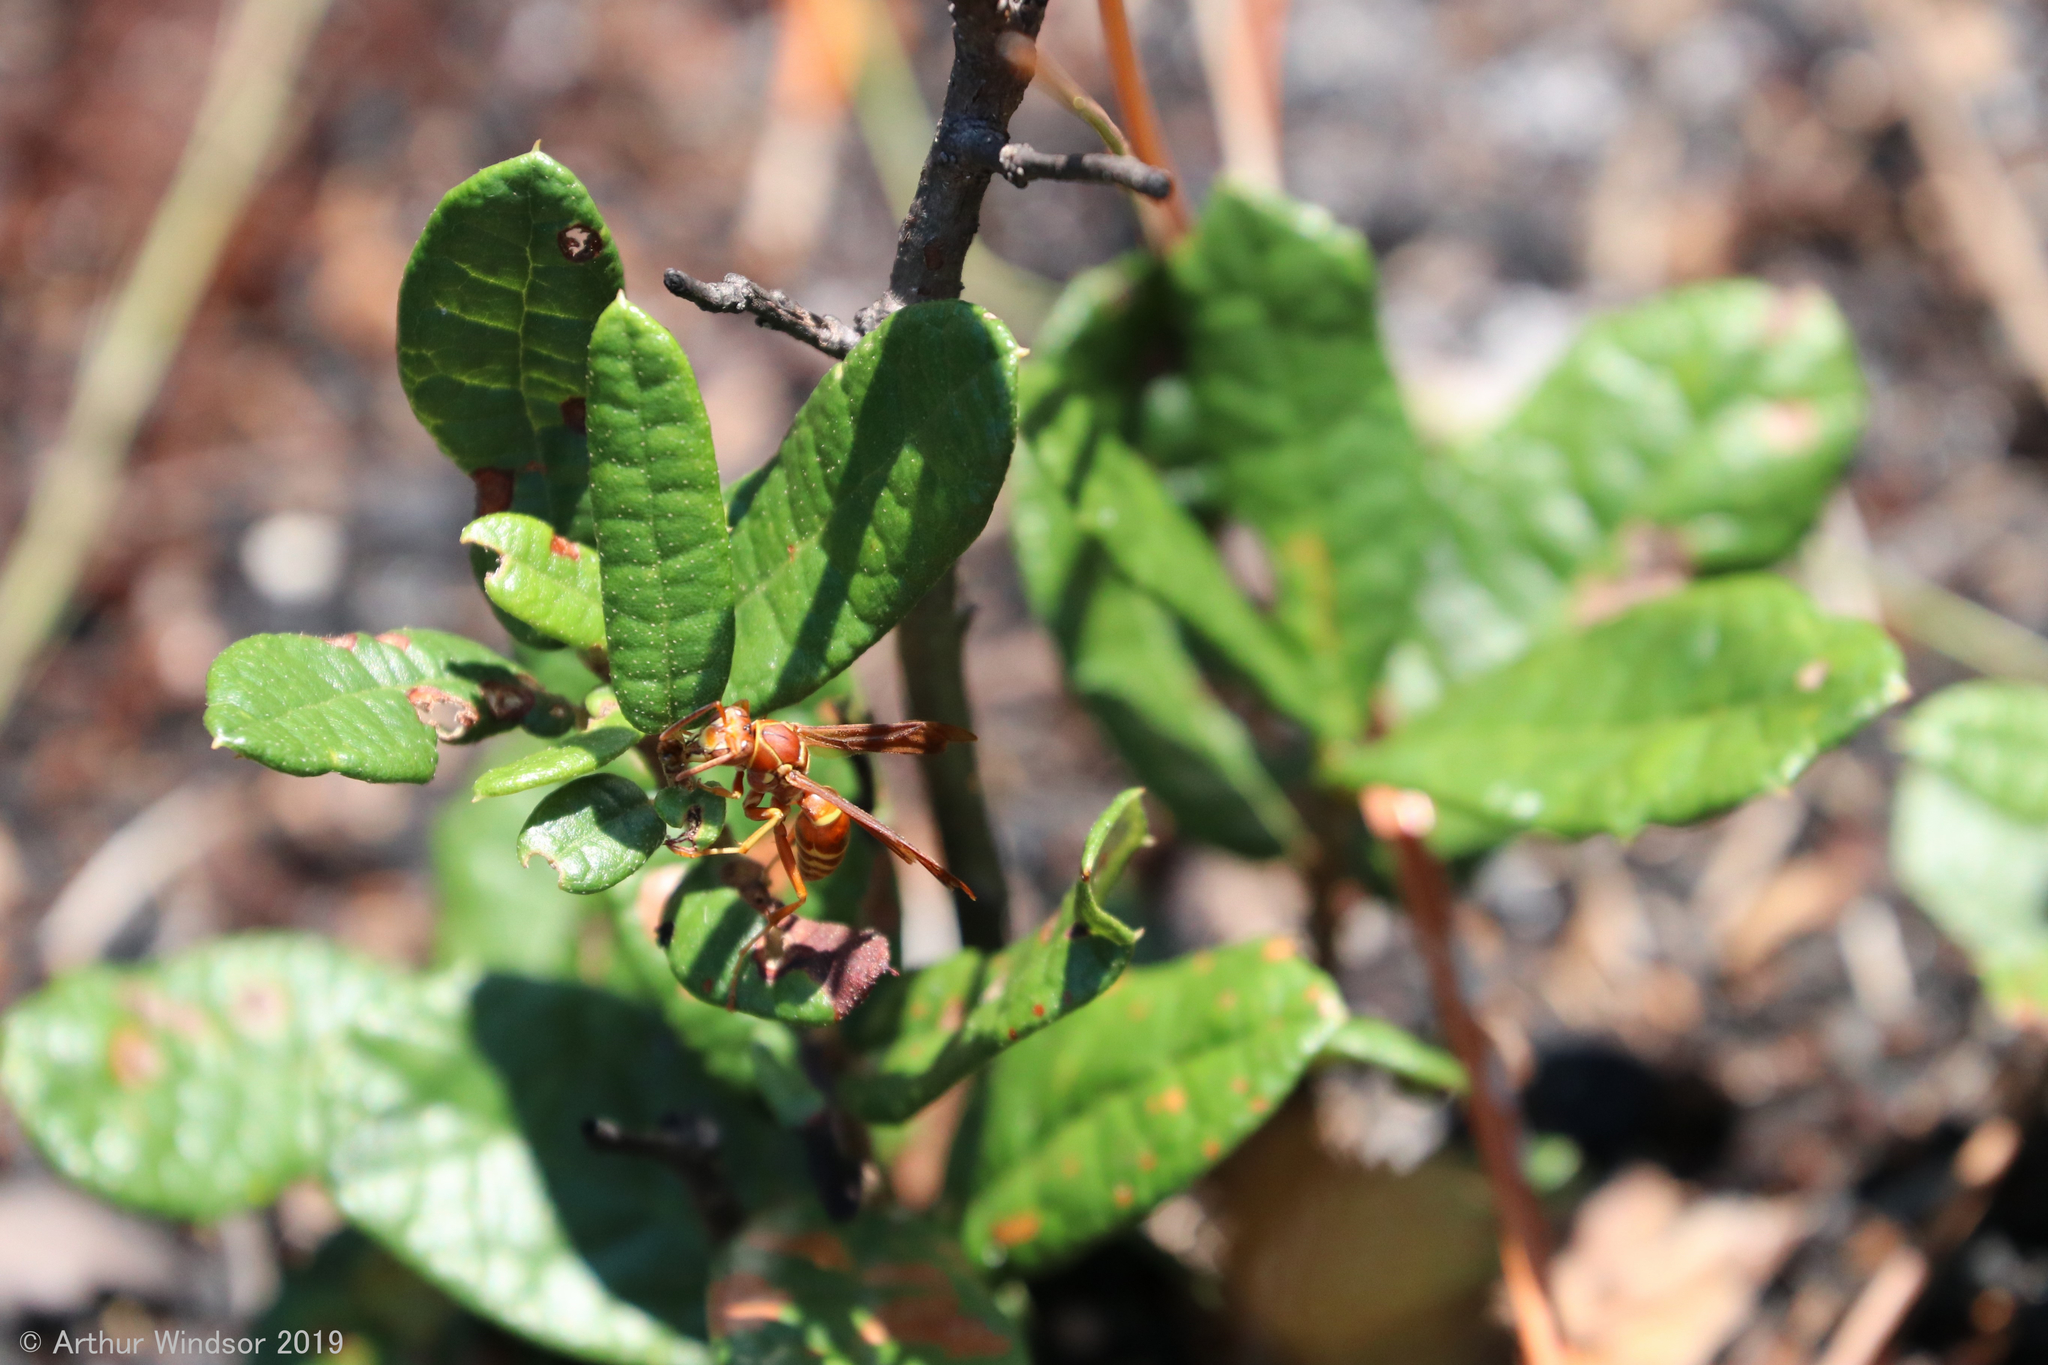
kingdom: Animalia
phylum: Arthropoda
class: Insecta
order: Hymenoptera
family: Eumenidae
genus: Polistes
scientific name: Polistes bellicosus
